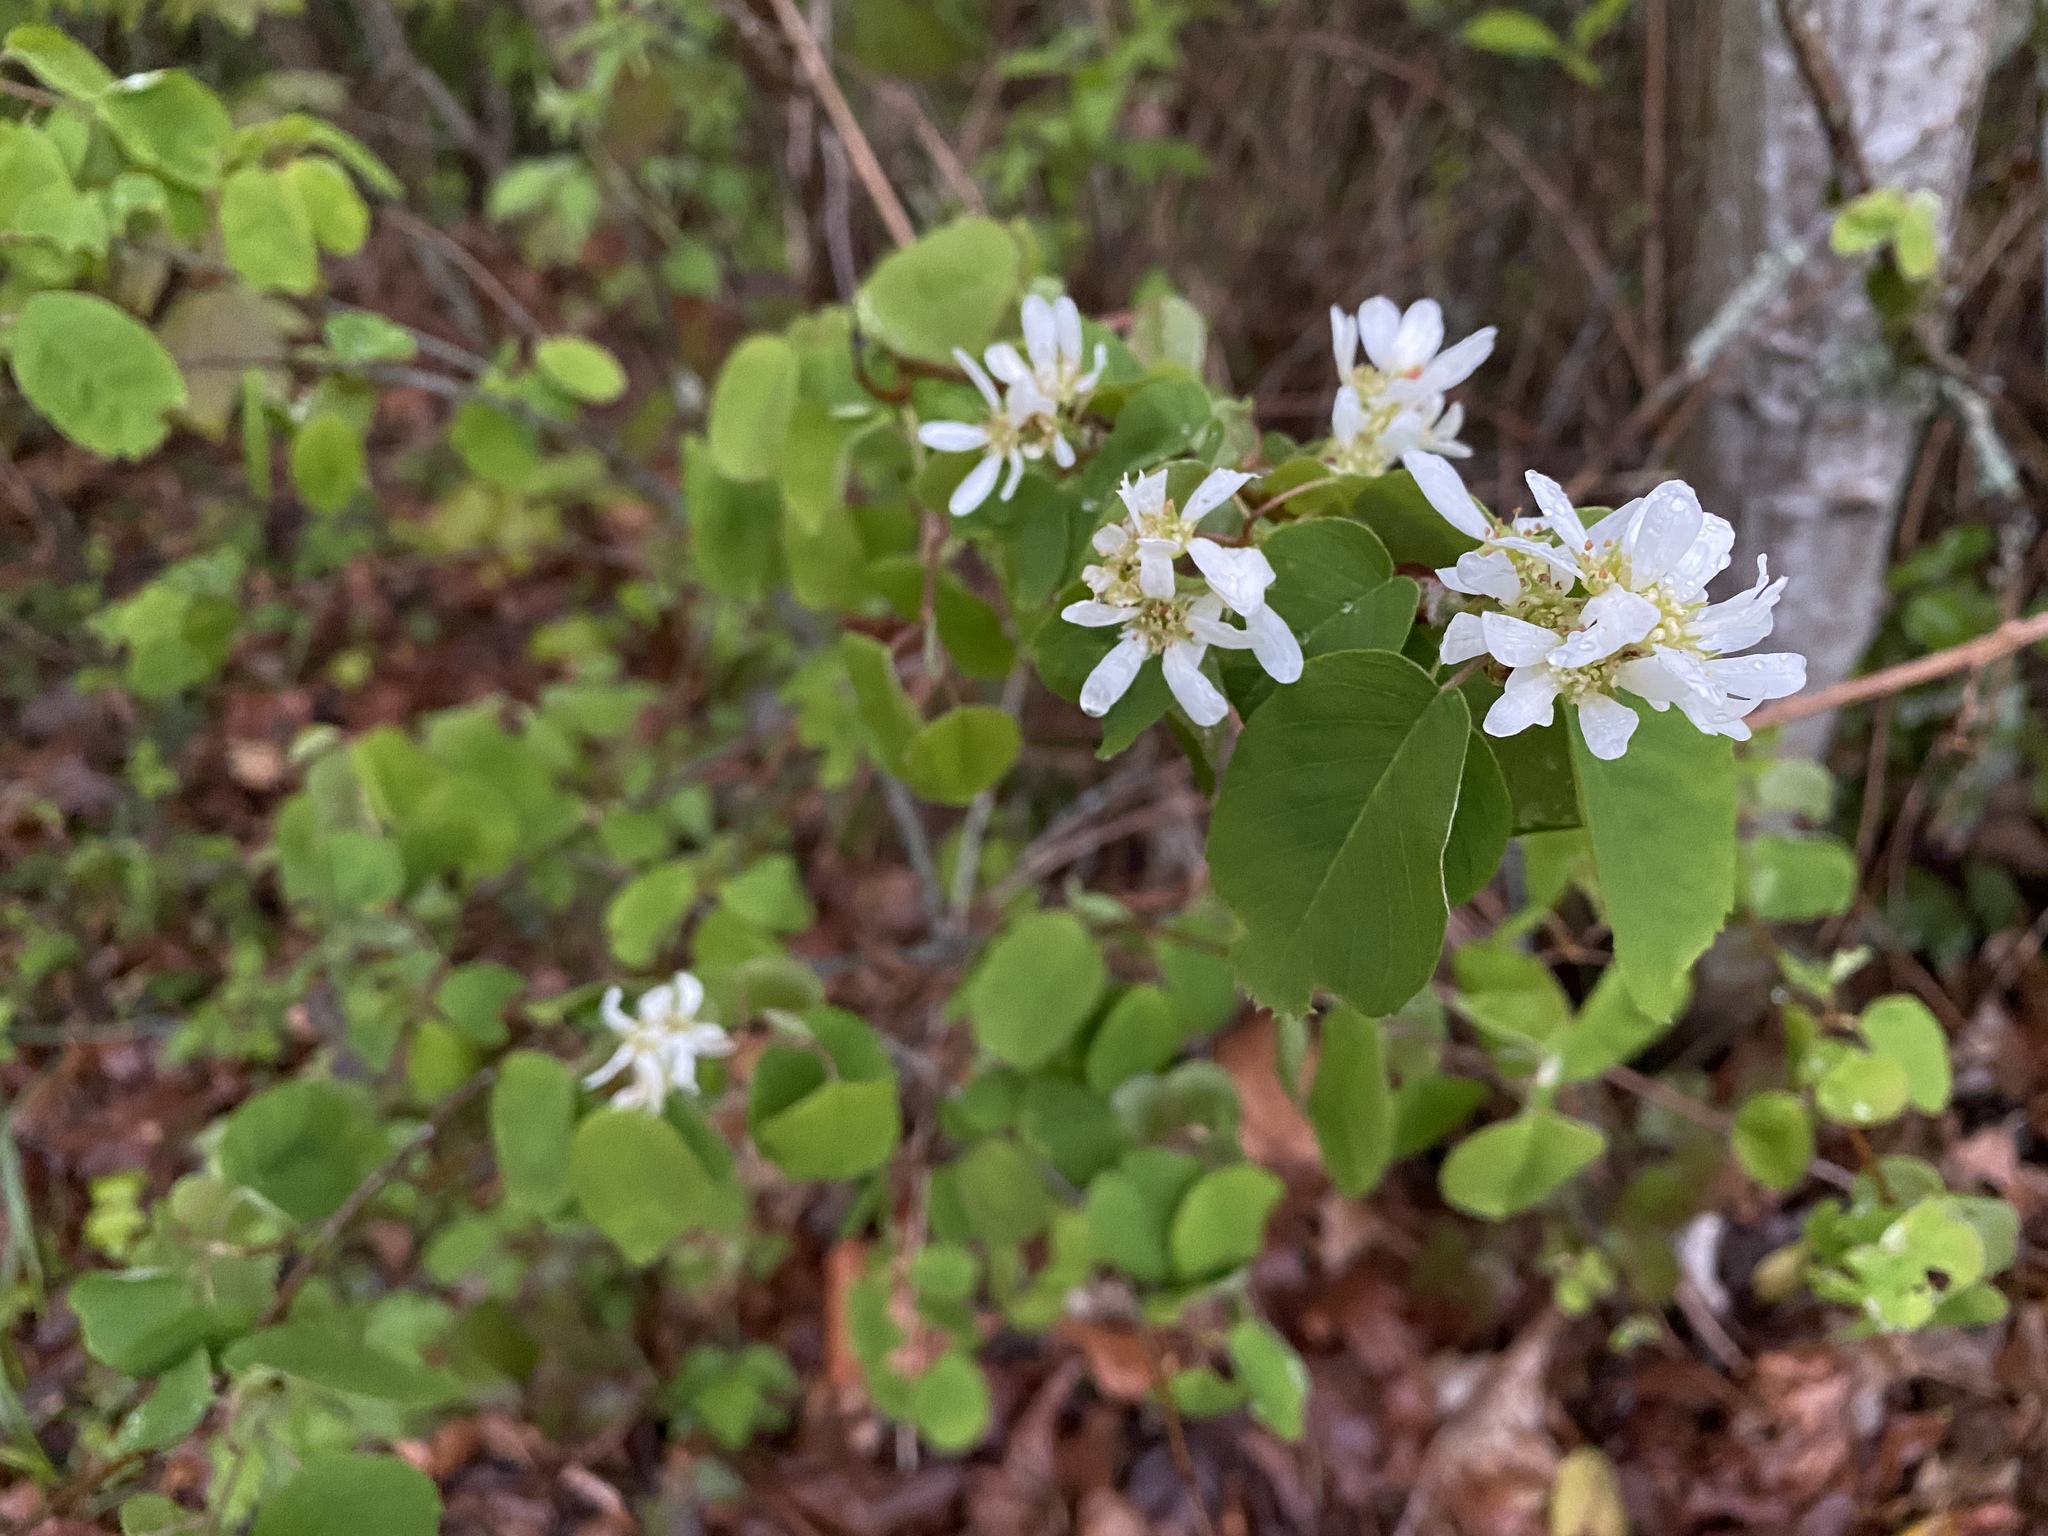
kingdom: Plantae
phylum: Tracheophyta
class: Magnoliopsida
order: Rosales
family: Rosaceae
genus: Amelanchier
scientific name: Amelanchier alnifolia
